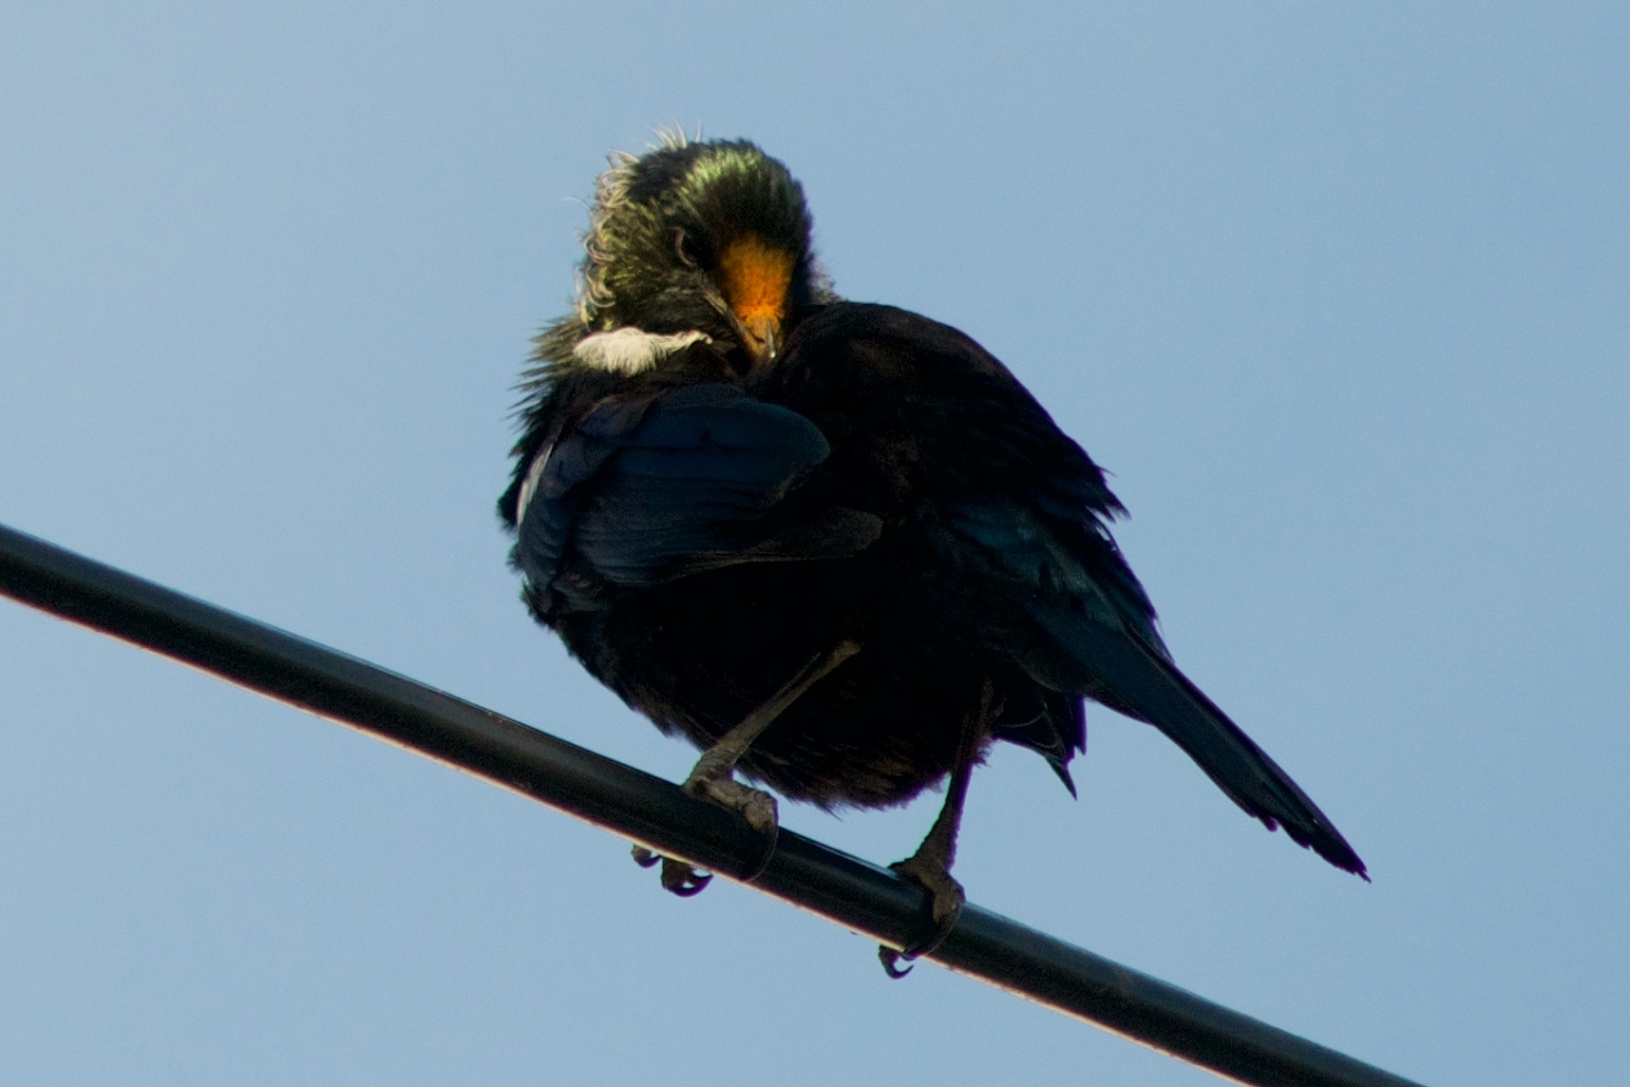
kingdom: Animalia
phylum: Chordata
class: Aves
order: Passeriformes
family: Meliphagidae
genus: Prosthemadera
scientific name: Prosthemadera novaeseelandiae
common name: Tui
